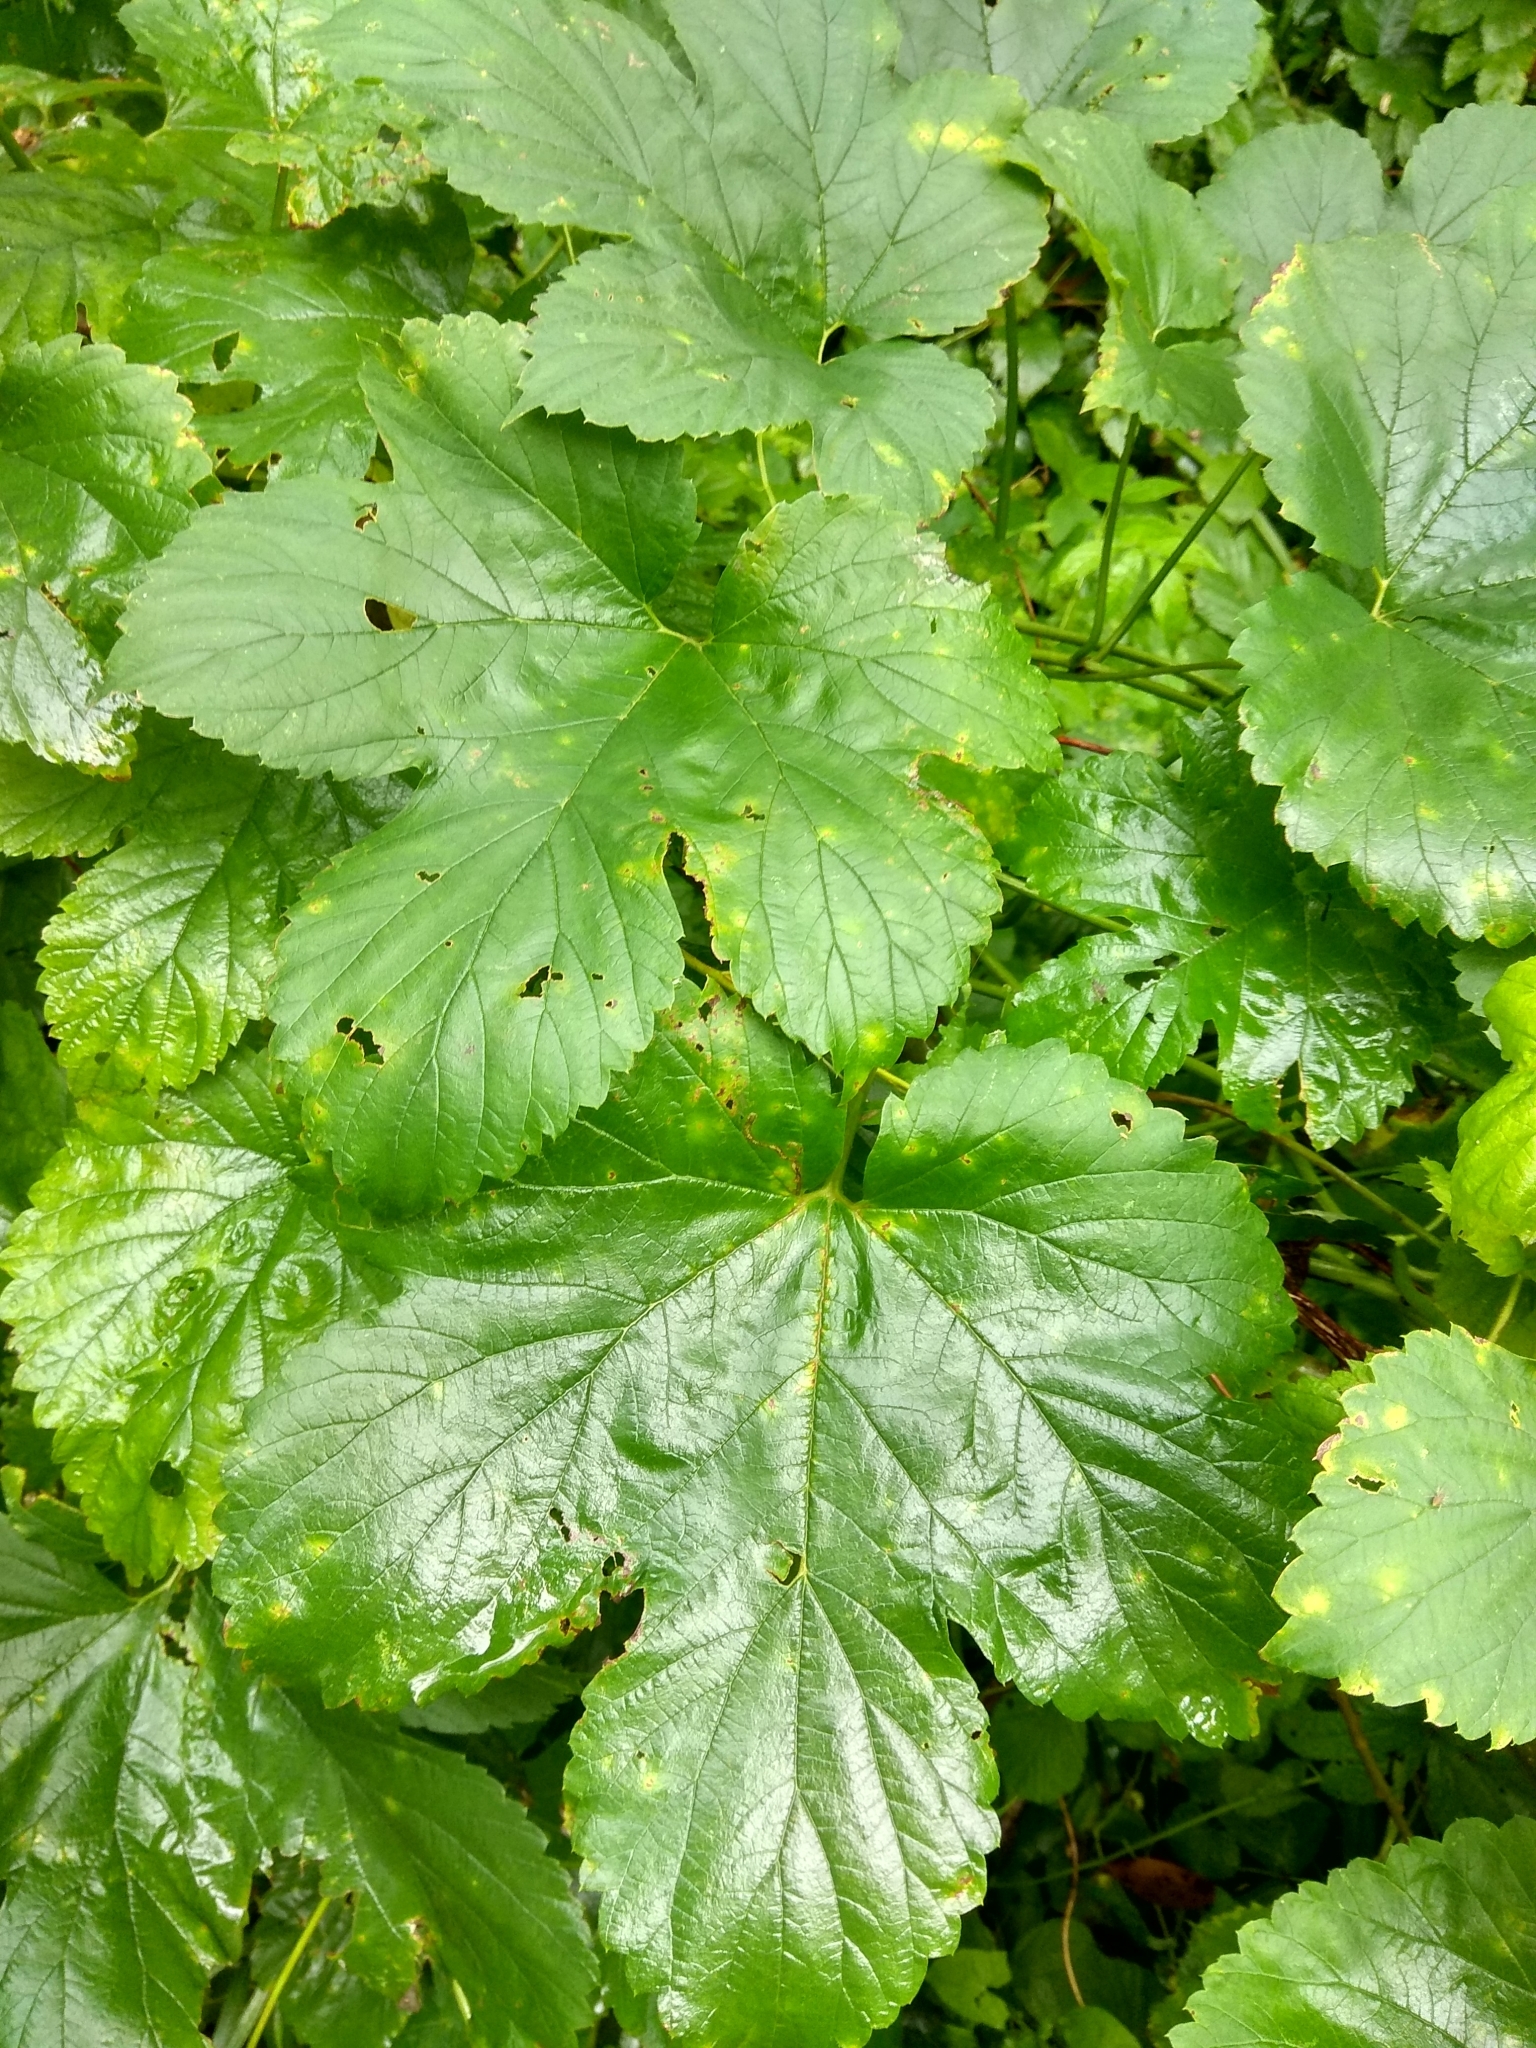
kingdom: Plantae
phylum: Tracheophyta
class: Magnoliopsida
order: Rosales
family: Cannabaceae
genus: Humulus
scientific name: Humulus lupulus
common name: Hop
